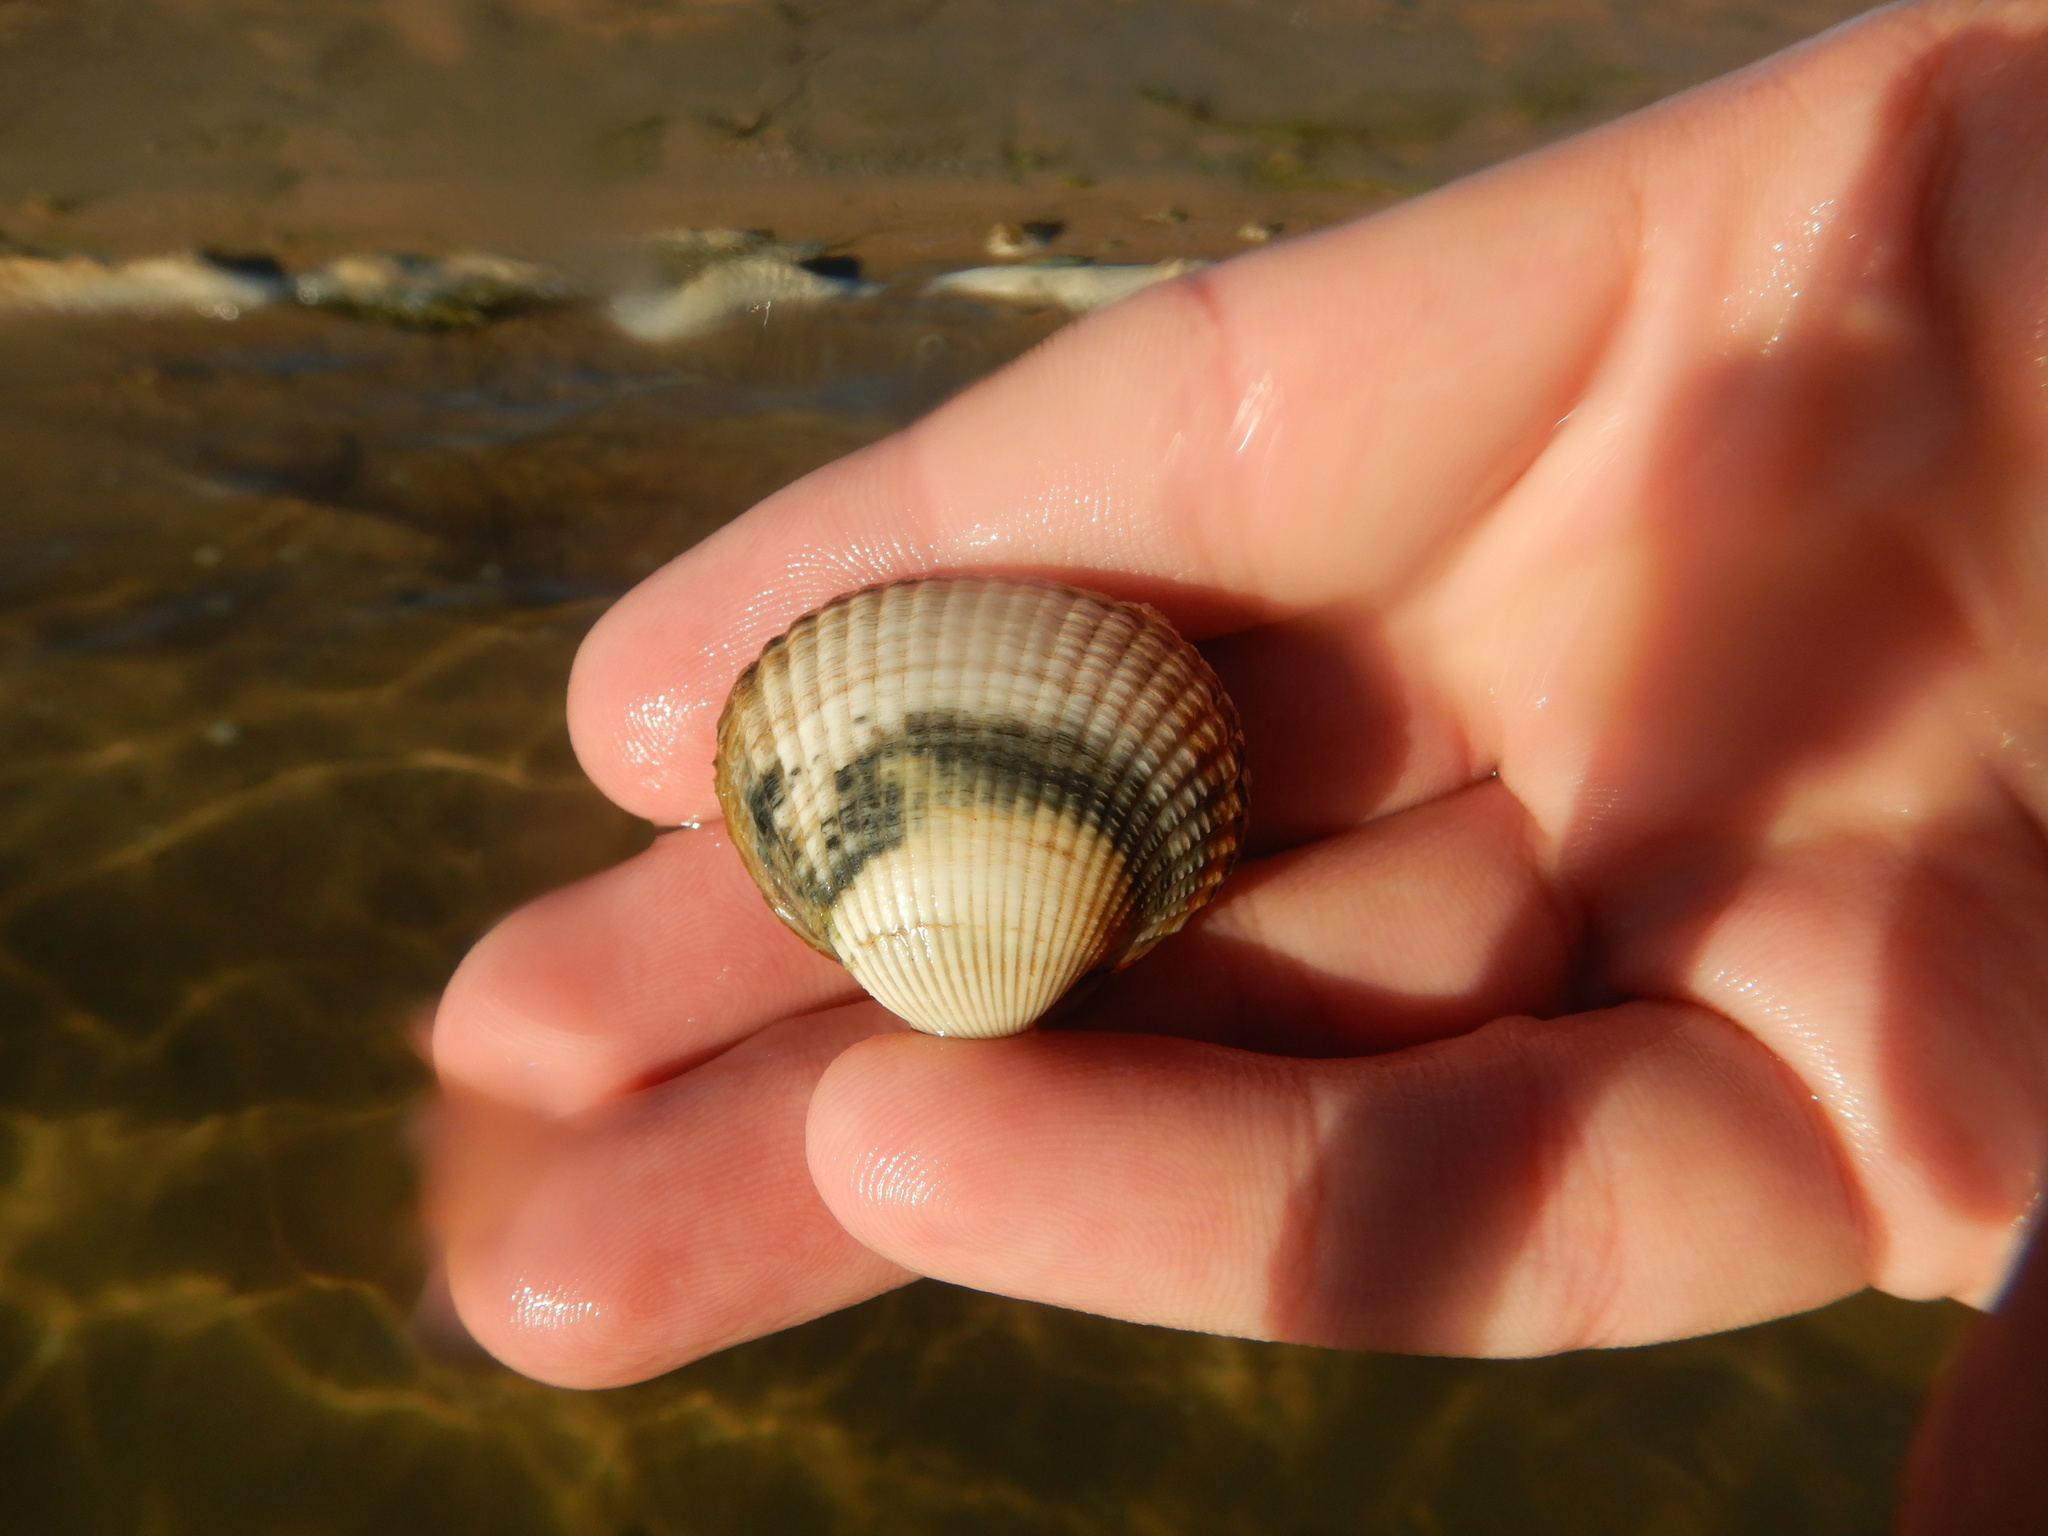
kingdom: Animalia
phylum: Mollusca
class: Bivalvia
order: Cardiida
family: Cardiidae
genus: Cerastoderma
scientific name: Cerastoderma edule
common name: Common cockle
